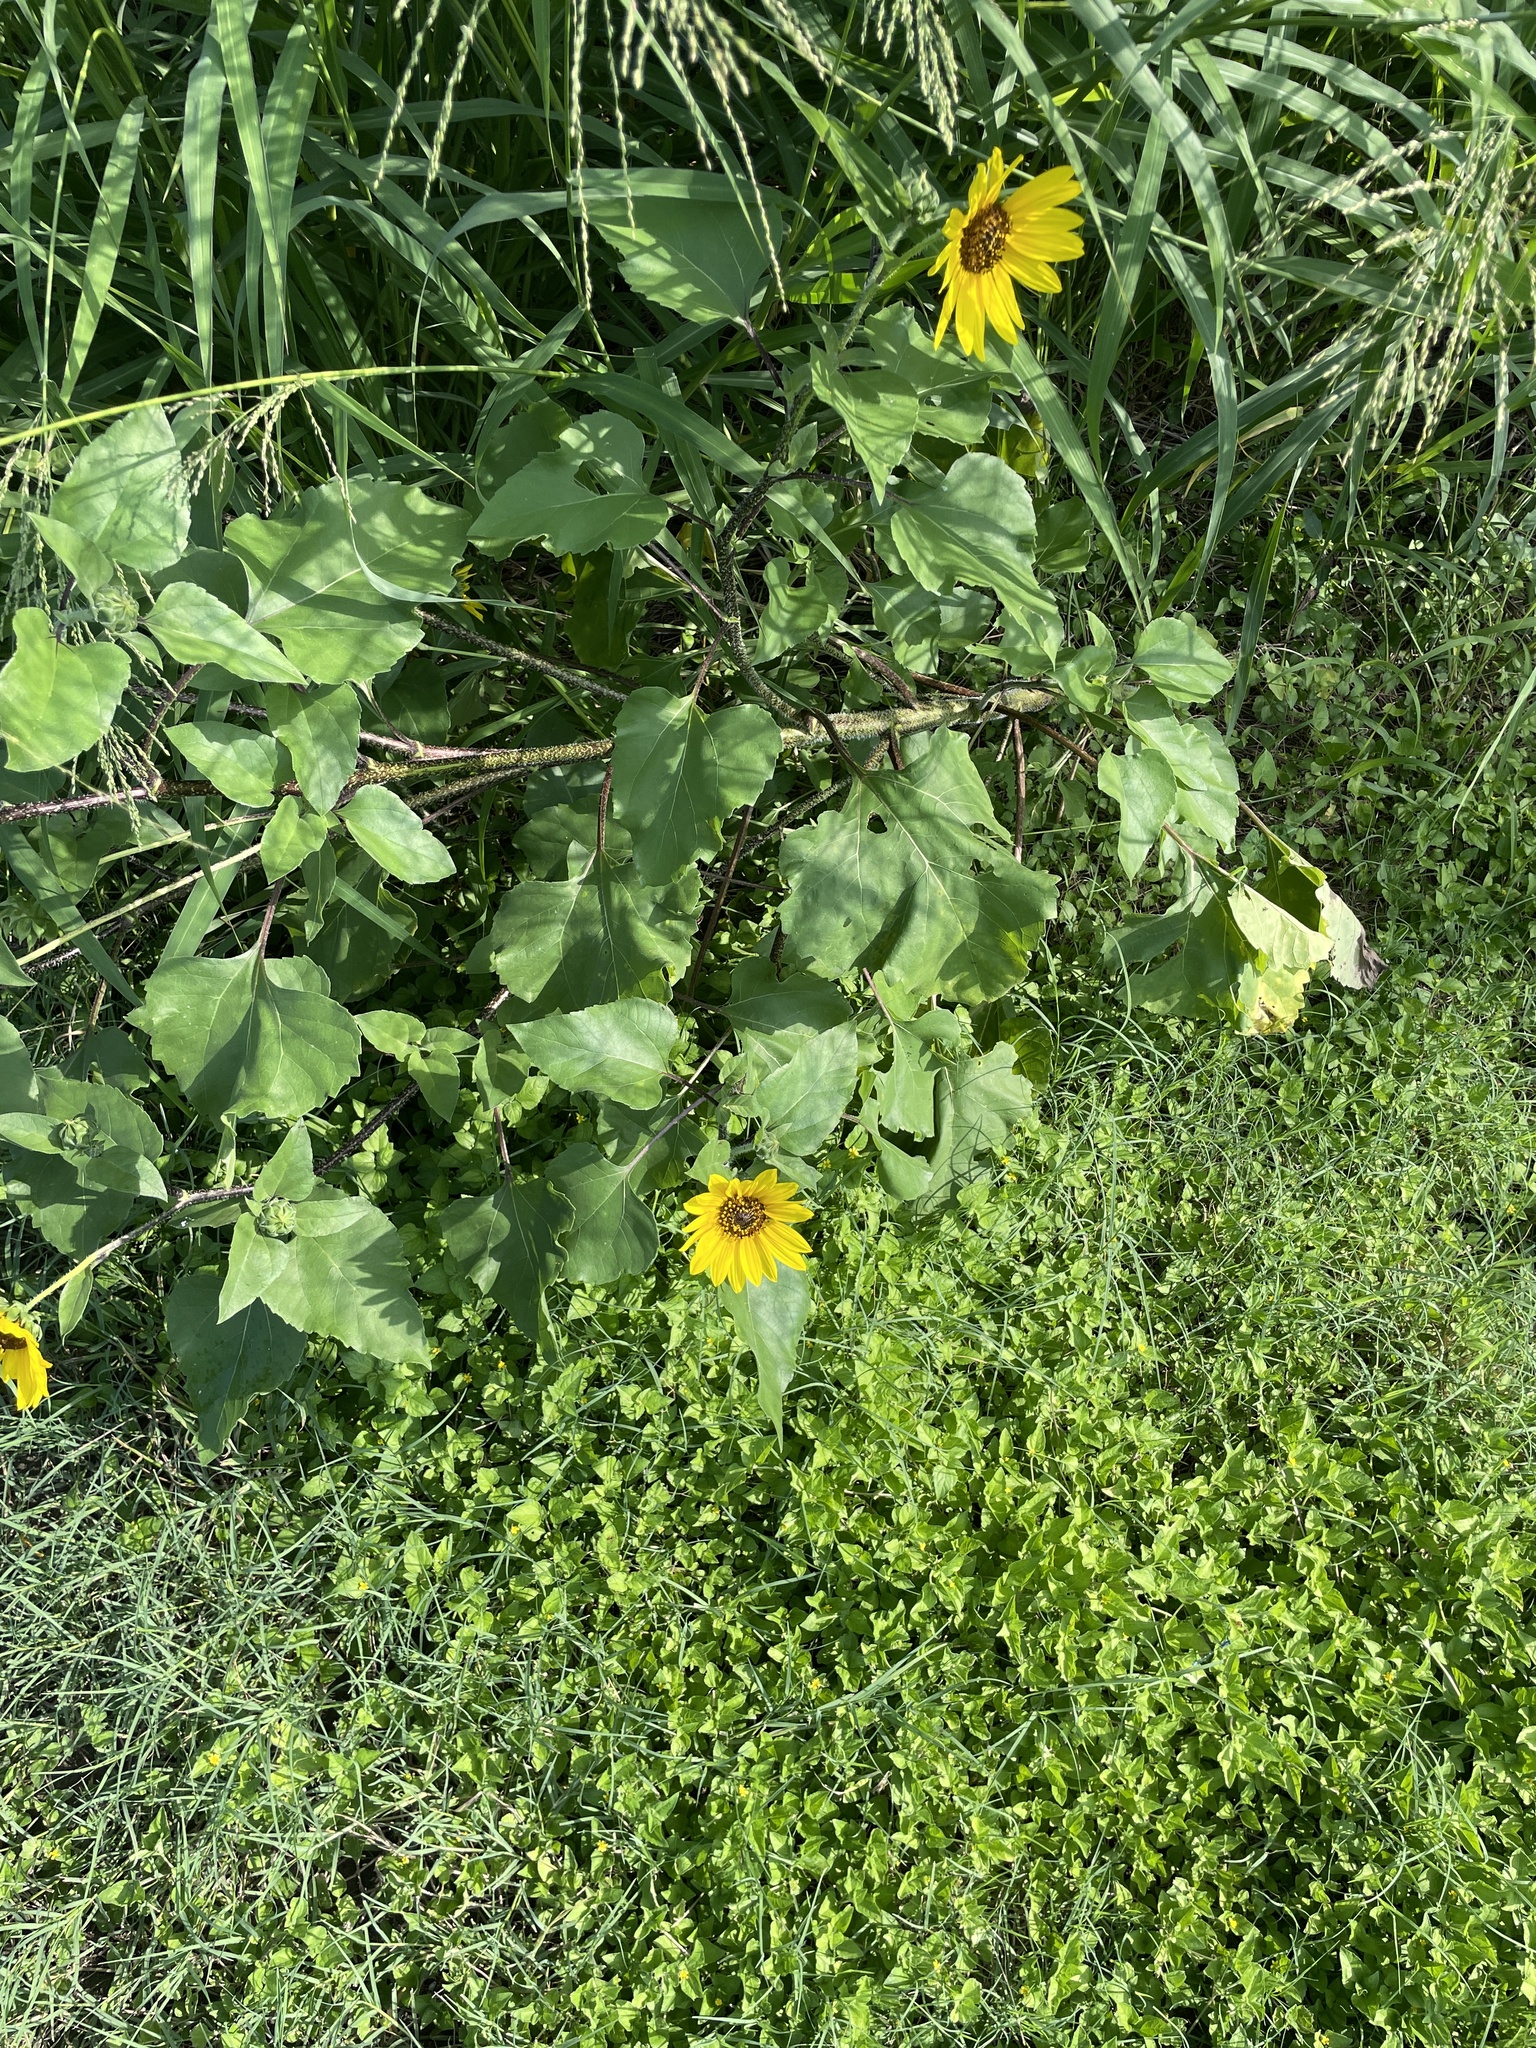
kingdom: Plantae
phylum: Tracheophyta
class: Magnoliopsida
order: Asterales
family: Asteraceae
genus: Helianthus
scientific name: Helianthus annuus
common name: Sunflower
